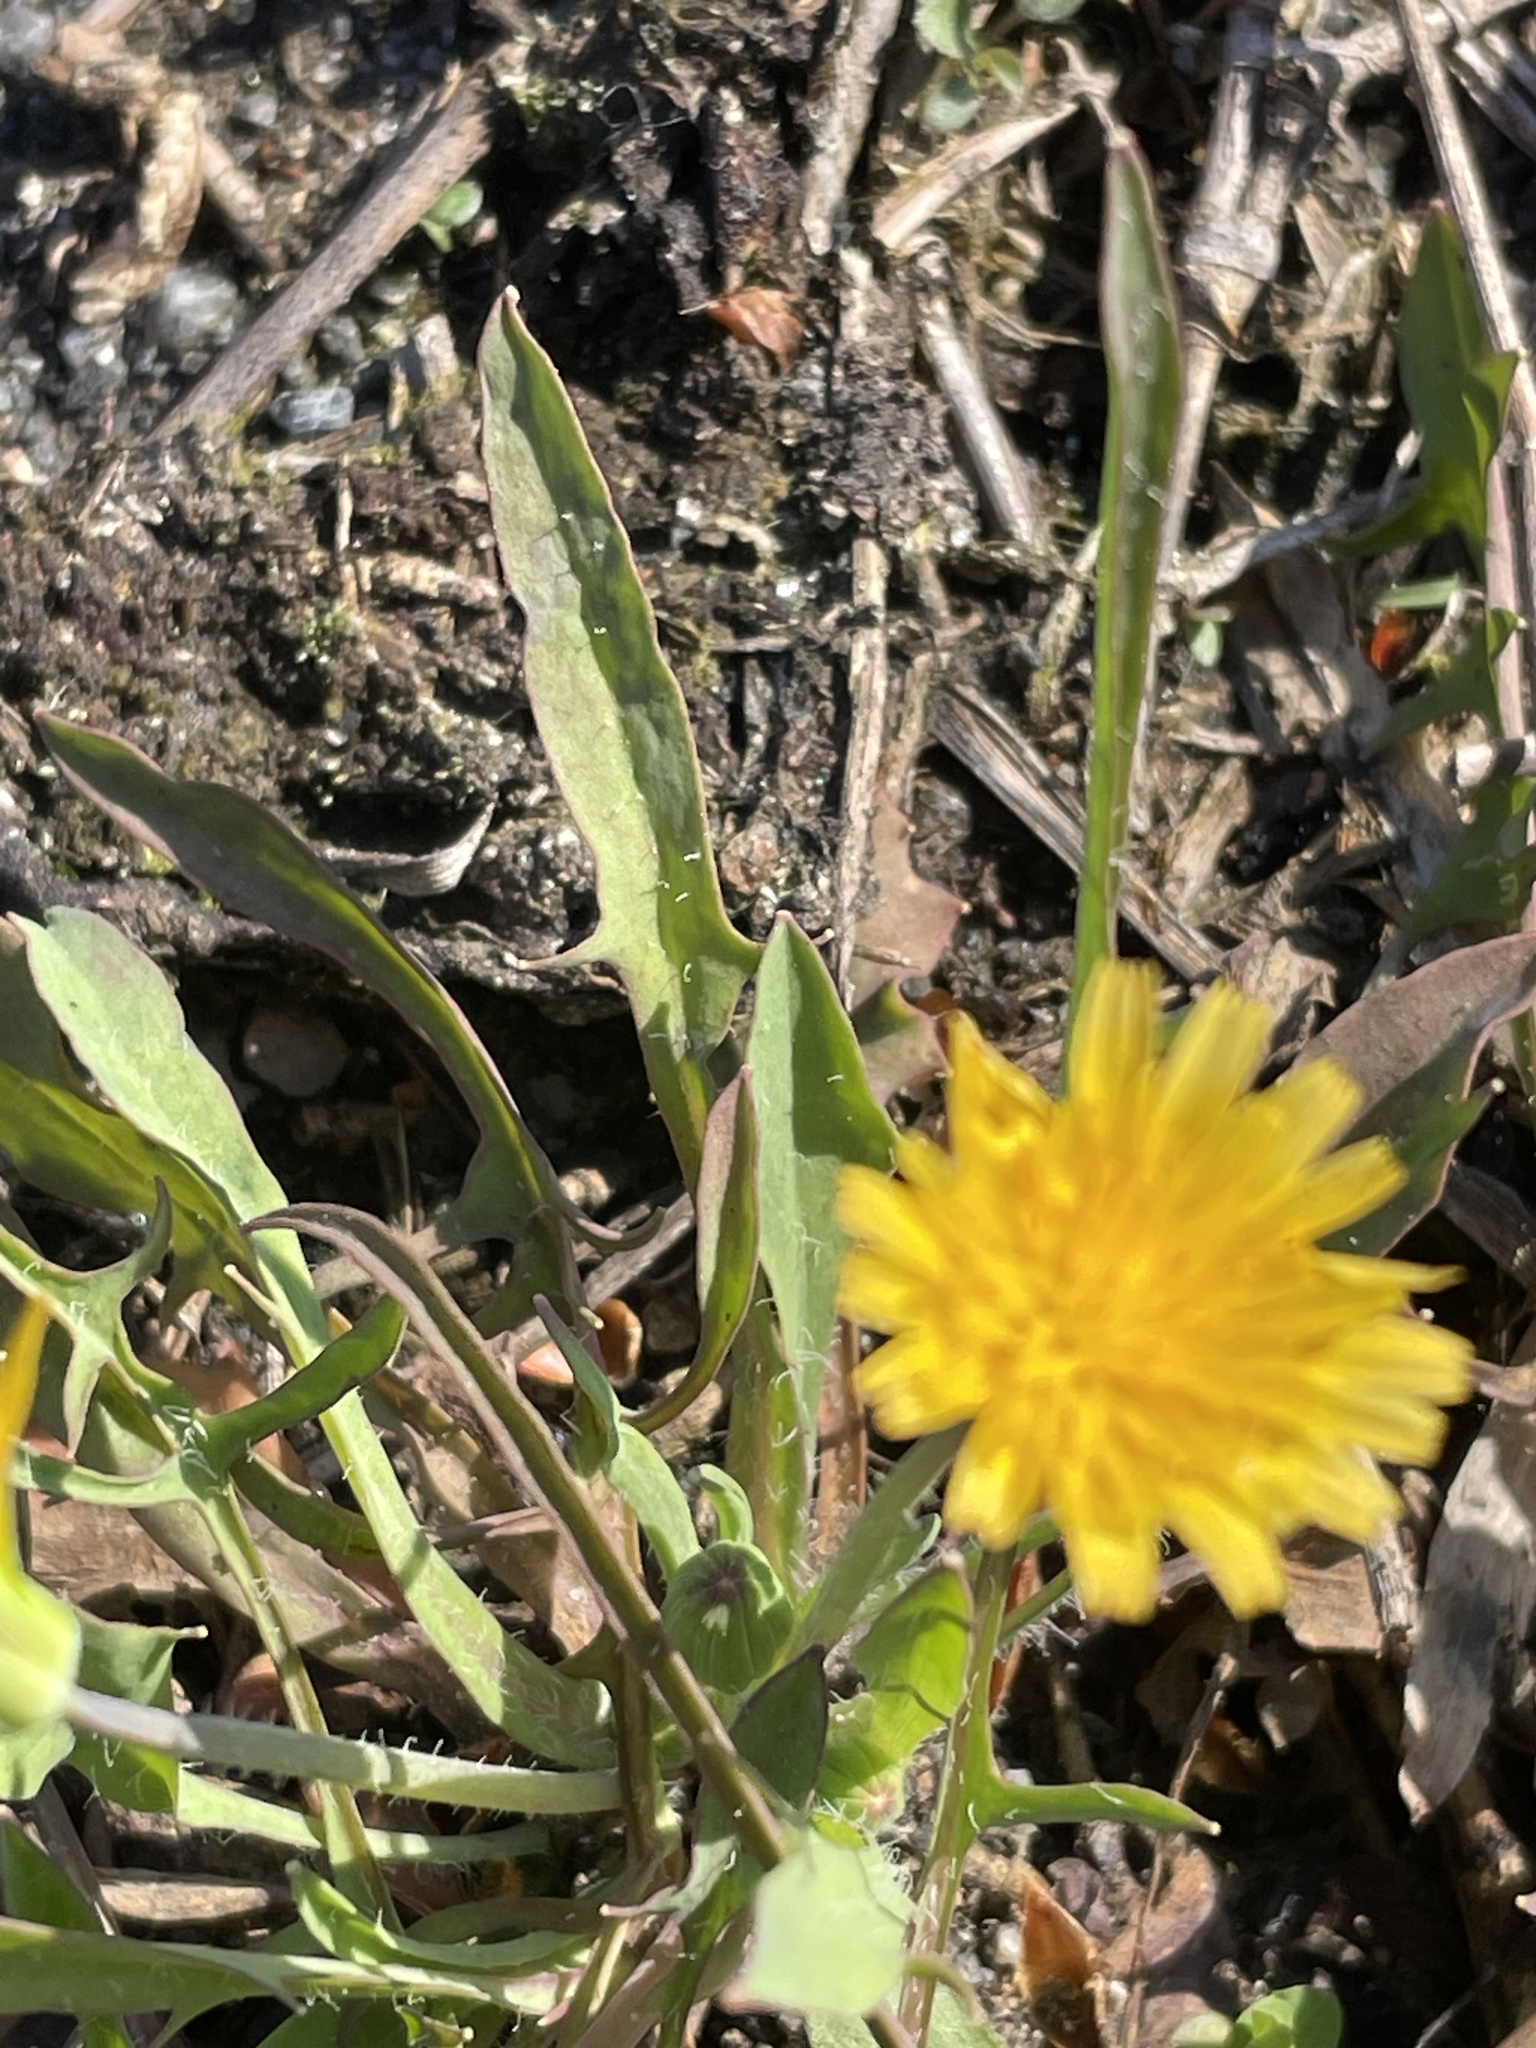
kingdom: Plantae
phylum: Tracheophyta
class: Magnoliopsida
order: Asterales
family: Asteraceae
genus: Krigia
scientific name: Krigia virginica
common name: Virginia dwarf-dandelion
